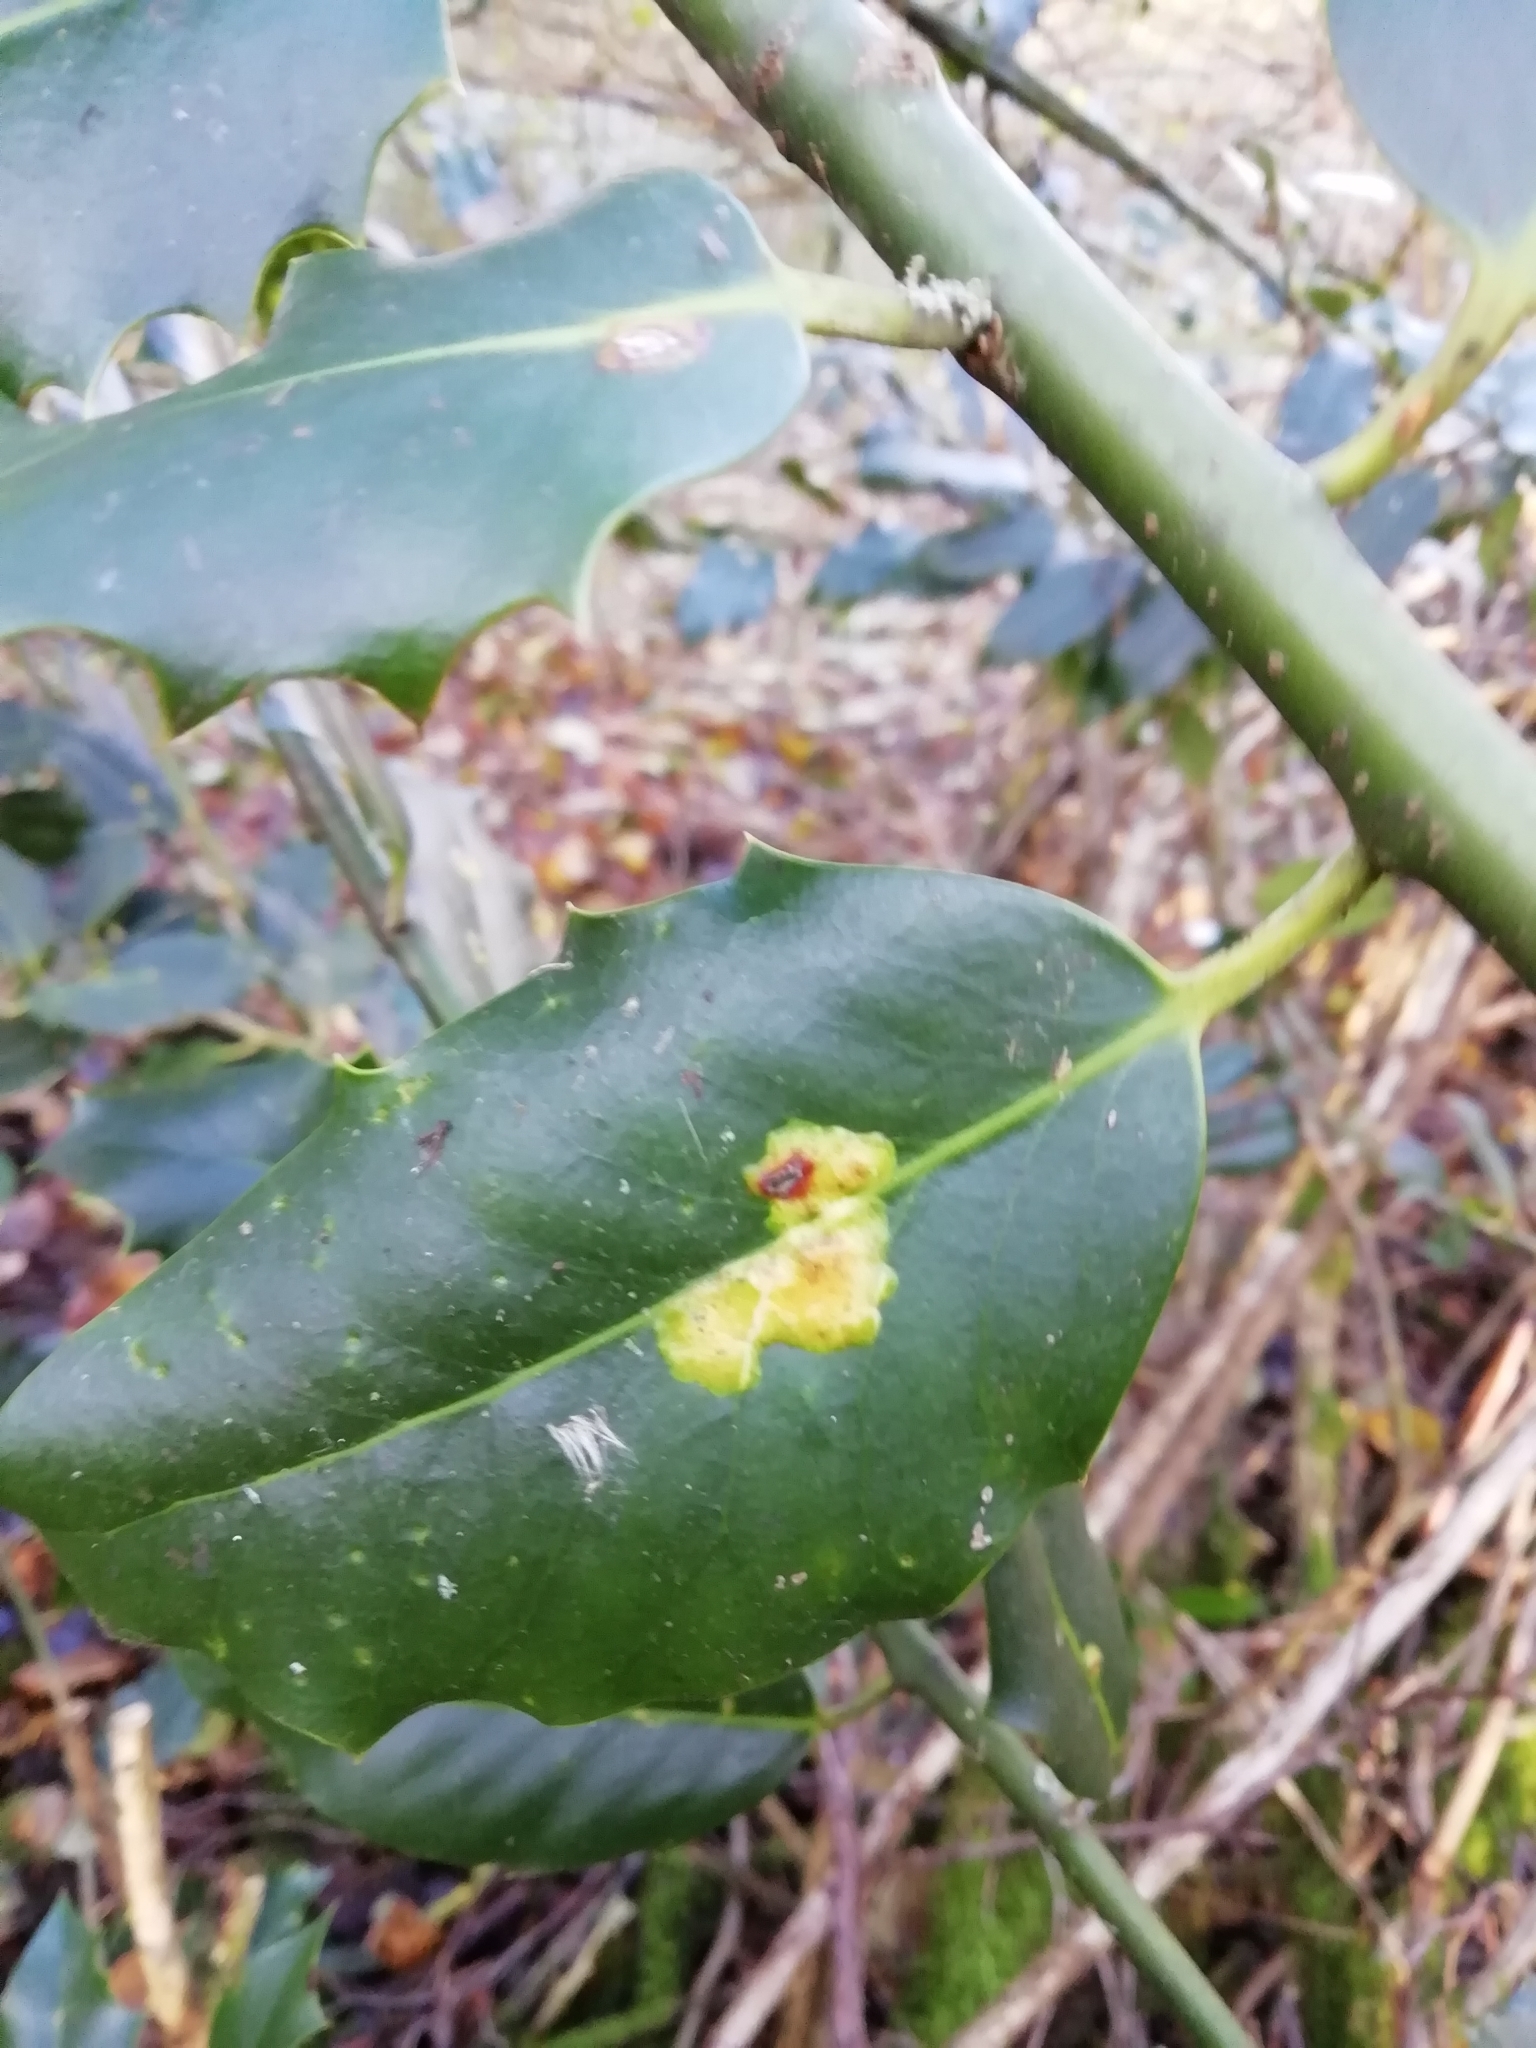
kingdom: Animalia
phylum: Arthropoda
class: Insecta
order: Diptera
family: Agromyzidae
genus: Phytomyza
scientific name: Phytomyza ilicis
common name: Holly leafminer
